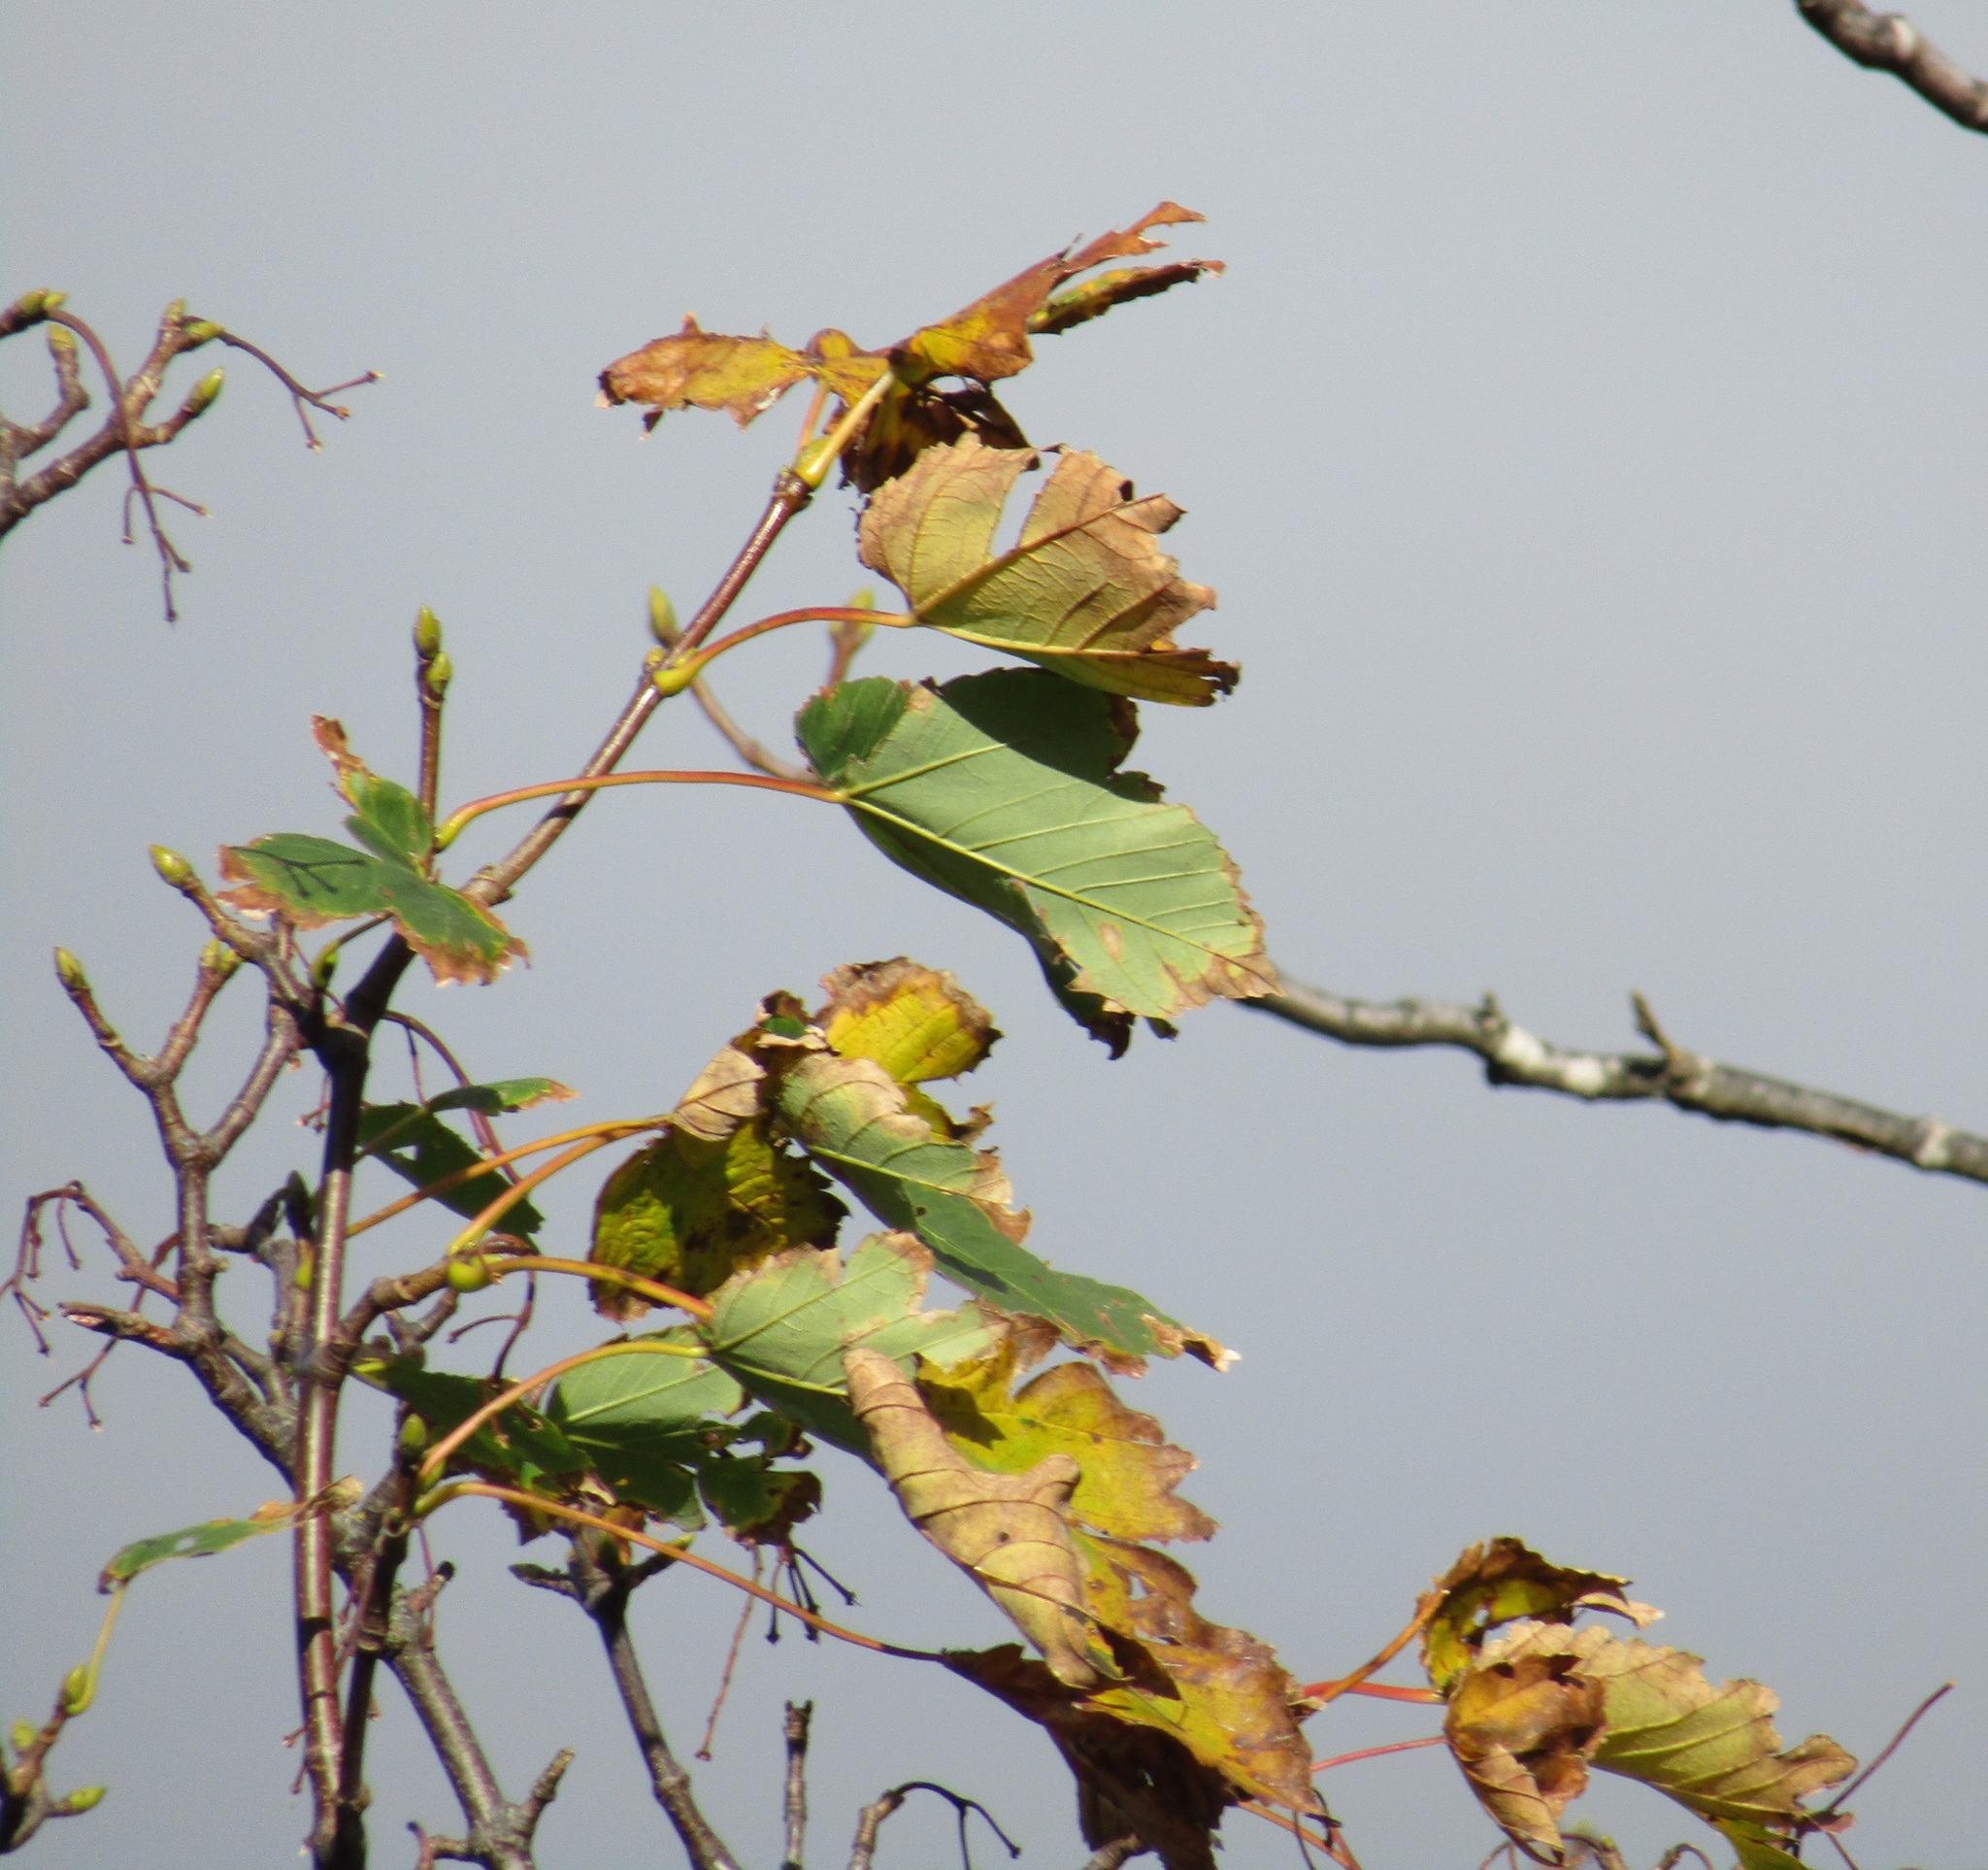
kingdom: Plantae
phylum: Tracheophyta
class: Magnoliopsida
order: Sapindales
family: Sapindaceae
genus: Acer
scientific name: Acer pseudoplatanus
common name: Sycamore
